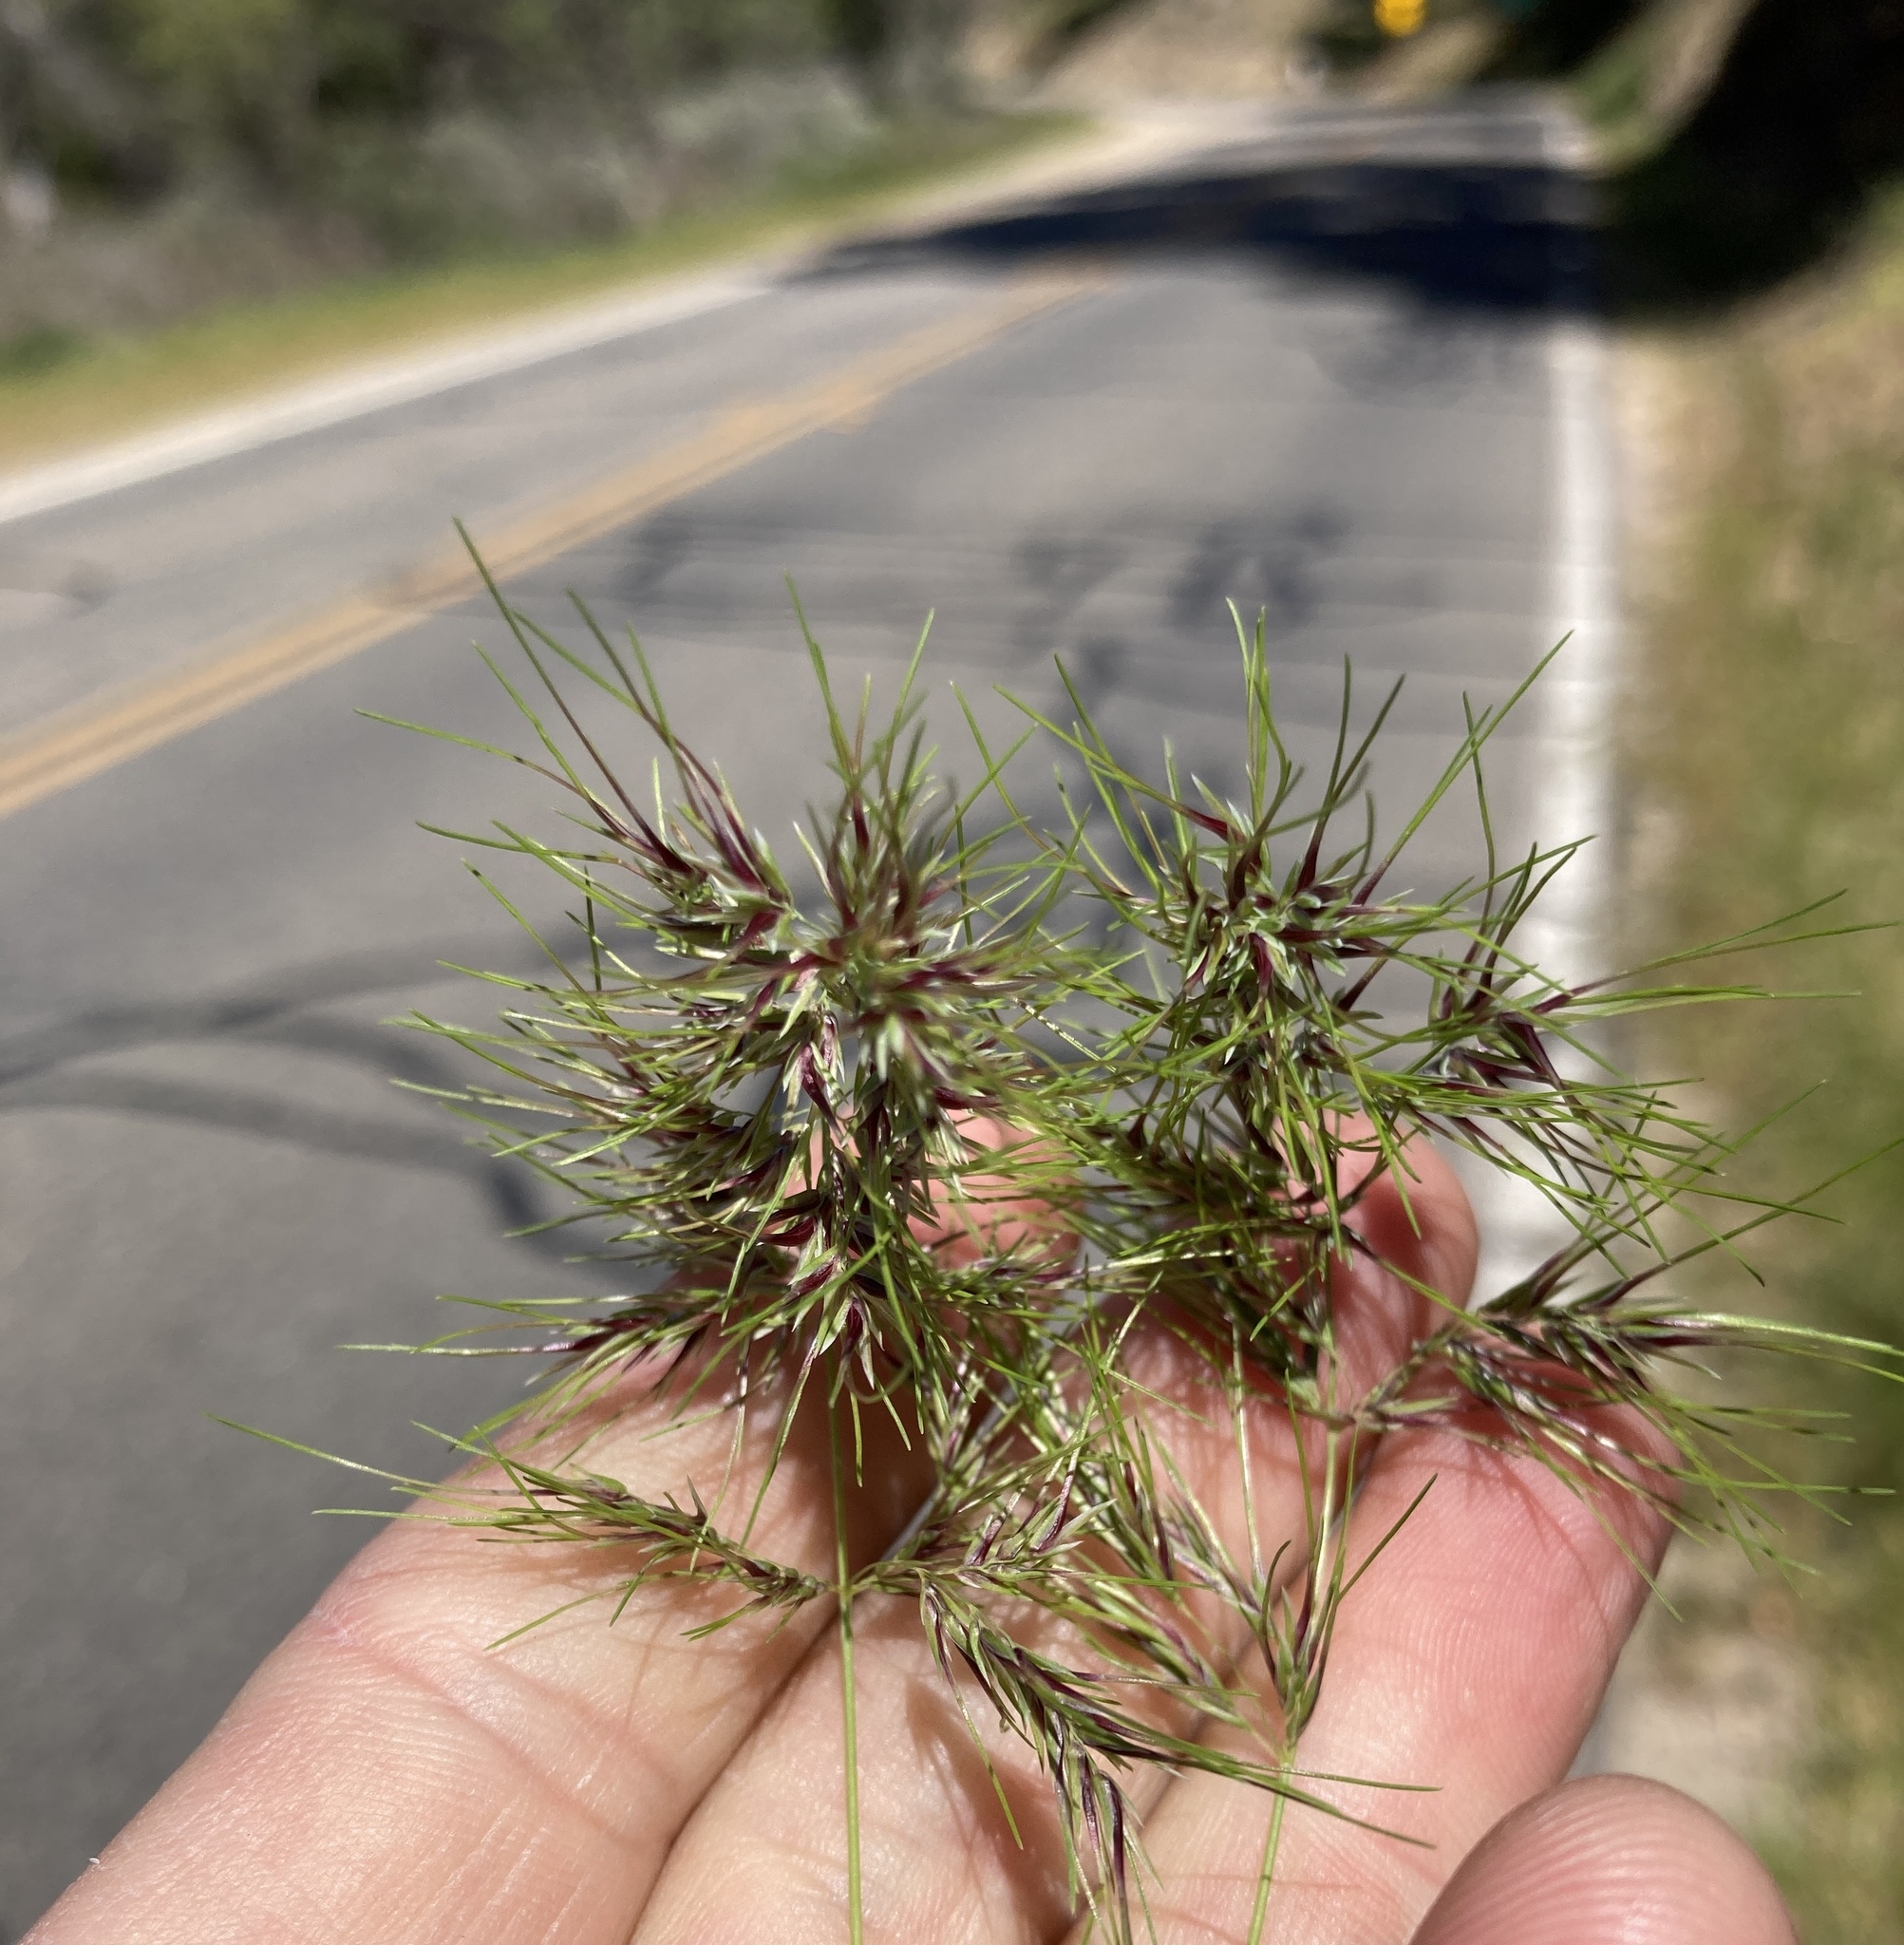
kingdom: Plantae
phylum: Tracheophyta
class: Liliopsida
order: Poales
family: Poaceae
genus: Poa
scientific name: Poa bulbosa
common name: Bulbous bluegrass
